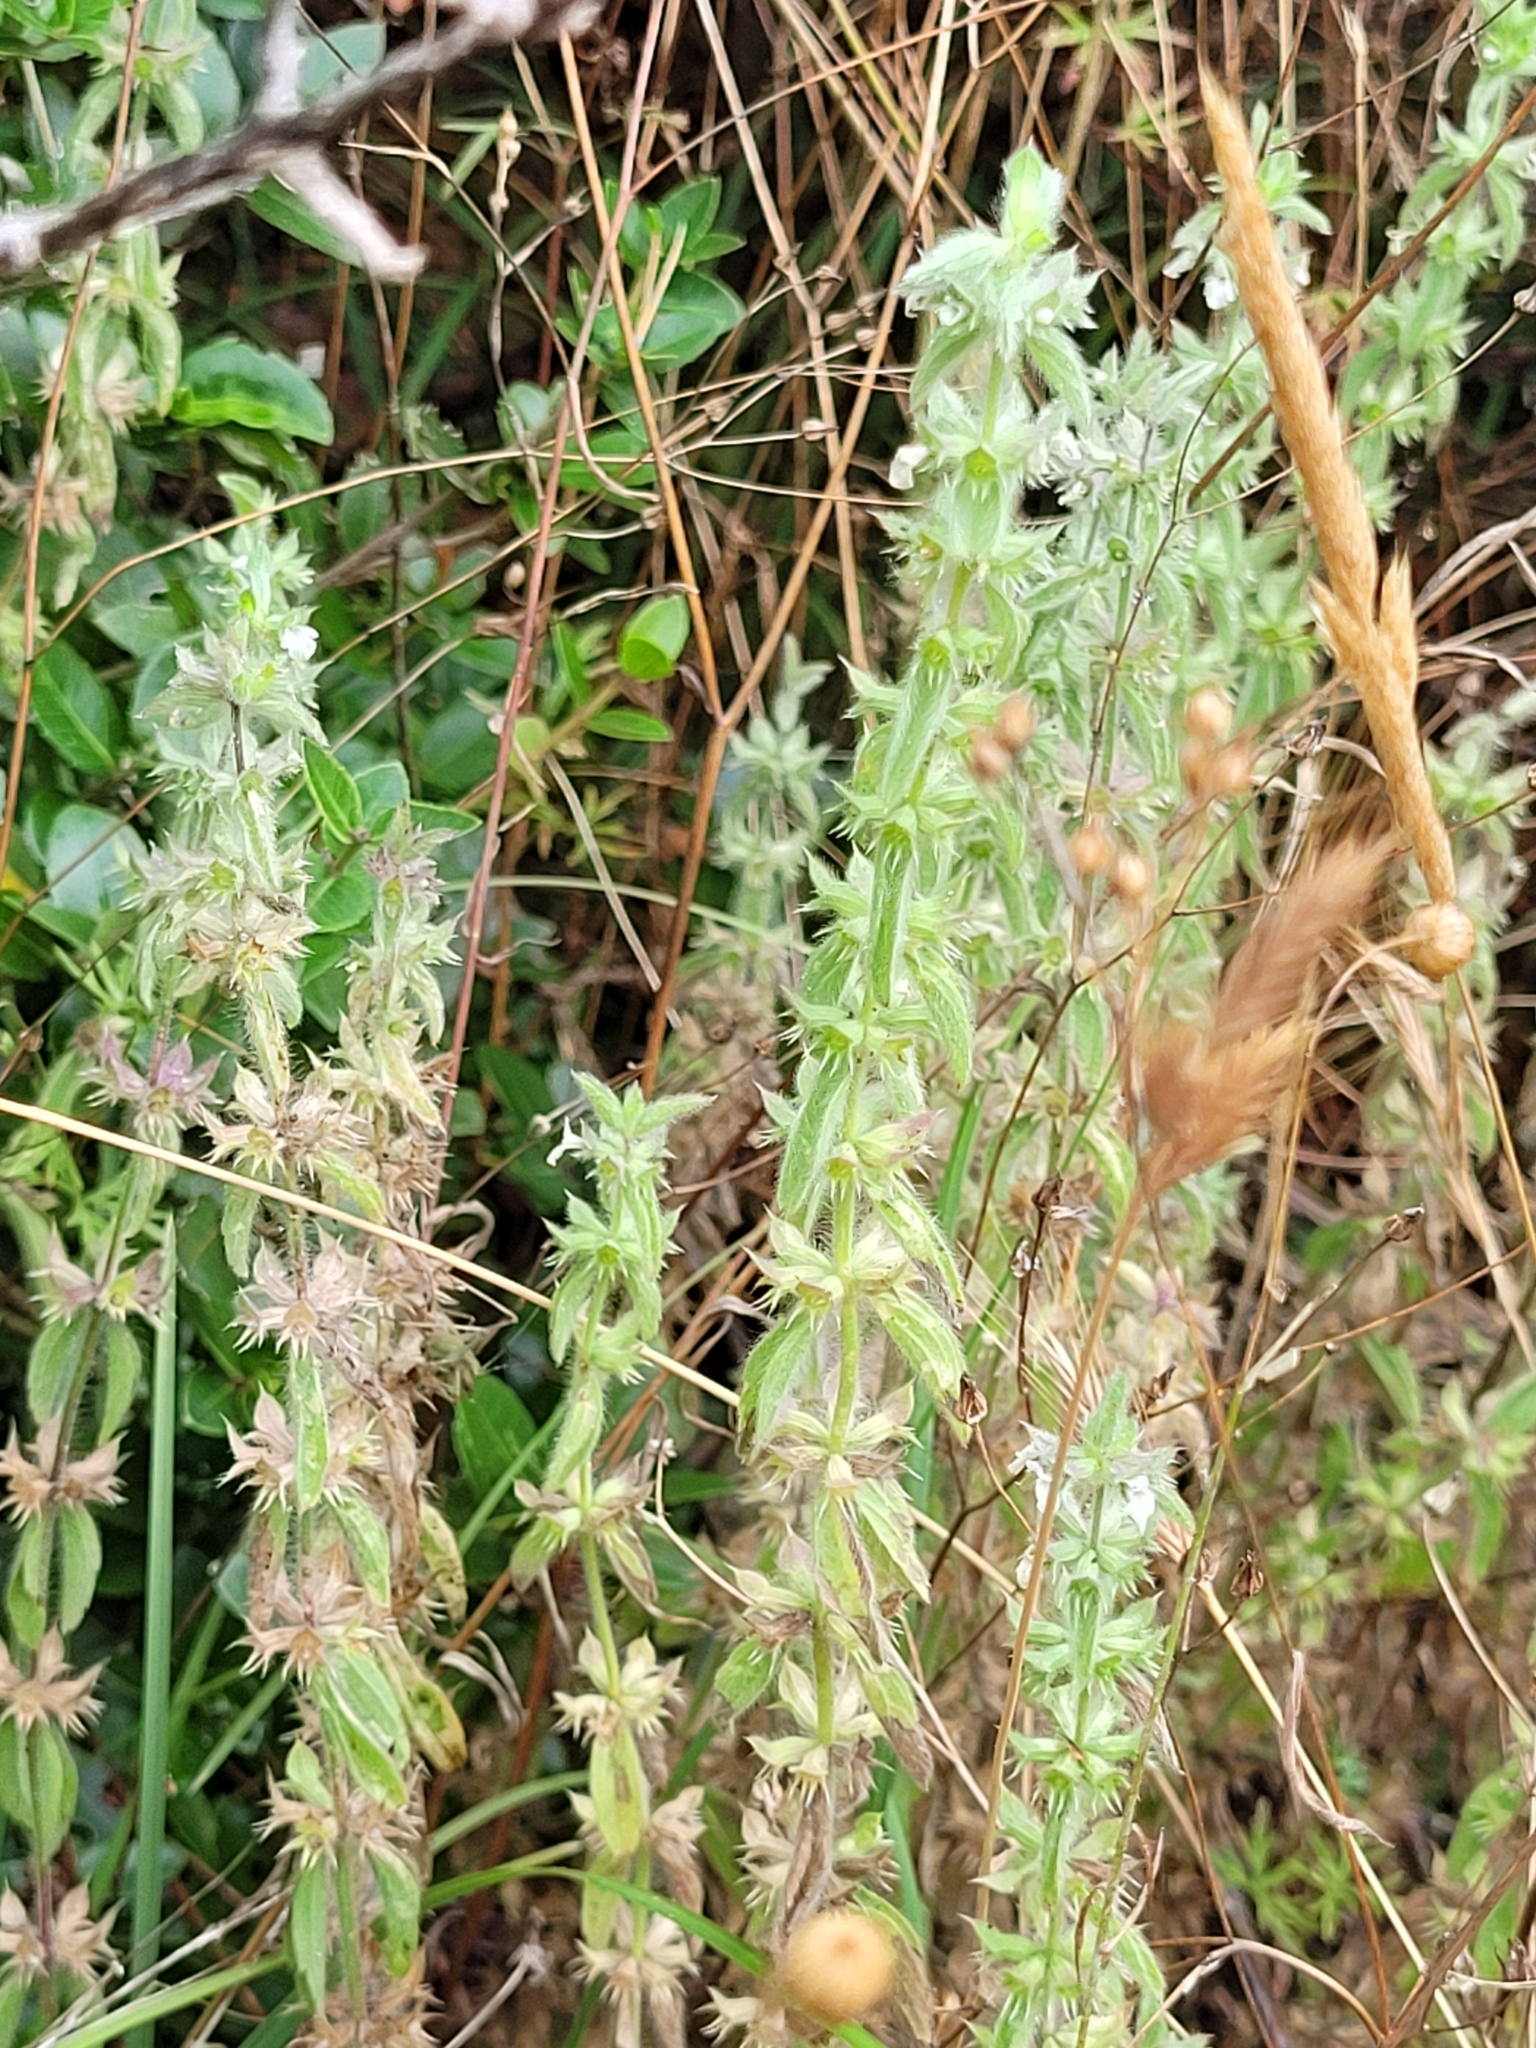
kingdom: Plantae
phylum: Tracheophyta
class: Magnoliopsida
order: Lamiales
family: Lamiaceae
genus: Sideritis
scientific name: Sideritis romana
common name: Simplebeak ironwort
